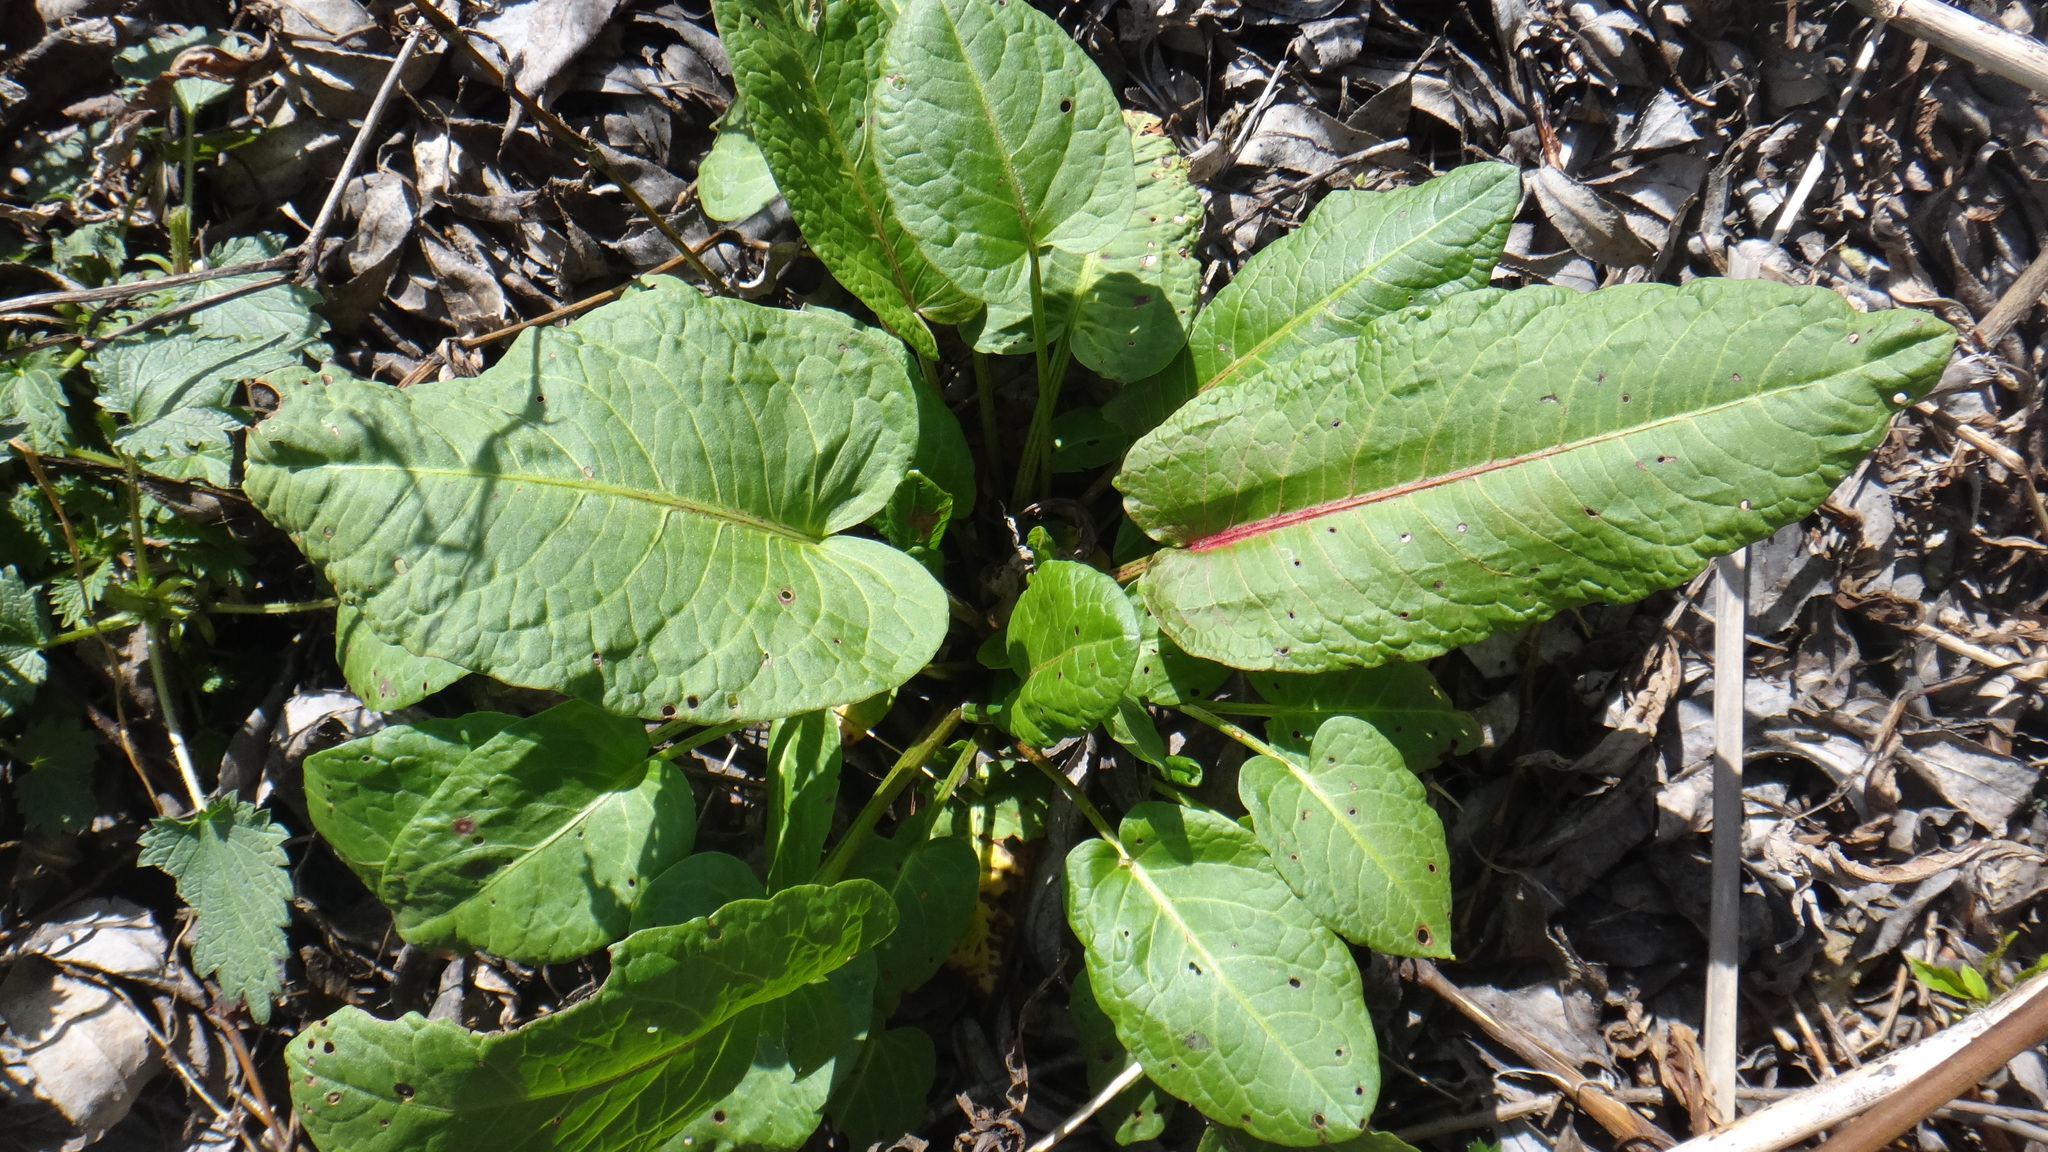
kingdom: Plantae
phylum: Tracheophyta
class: Magnoliopsida
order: Caryophyllales
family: Polygonaceae
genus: Rumex
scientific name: Rumex obtusifolius
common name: Bitter dock
